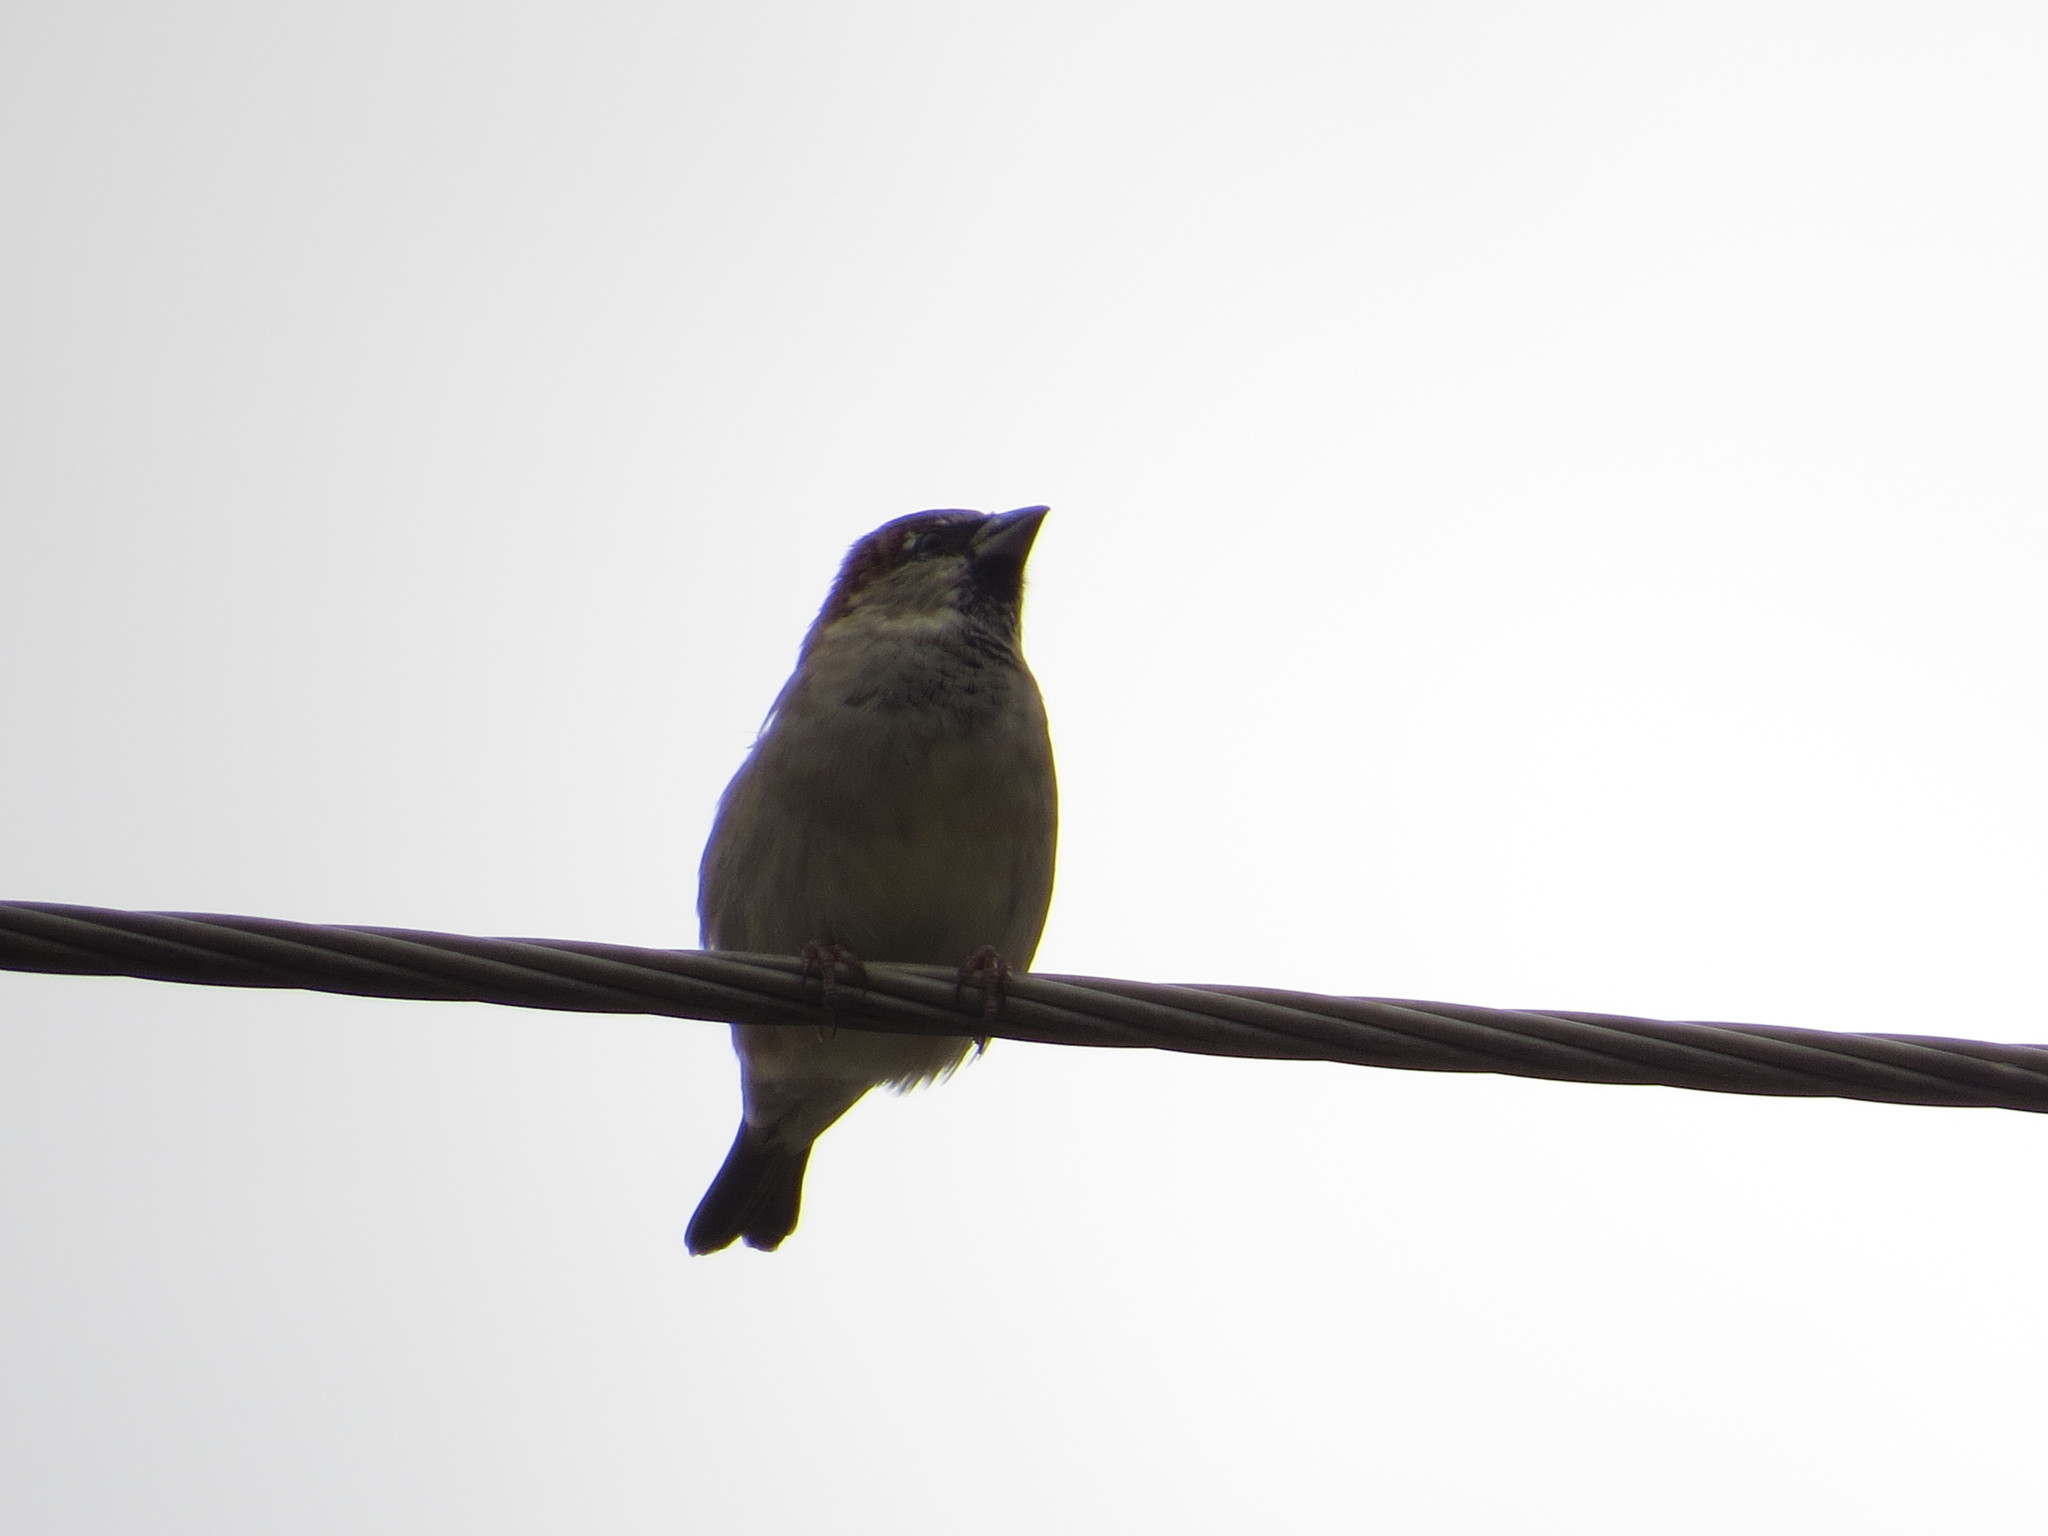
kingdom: Animalia
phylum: Chordata
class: Aves
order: Passeriformes
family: Passeridae
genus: Passer
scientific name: Passer domesticus
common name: House sparrow
